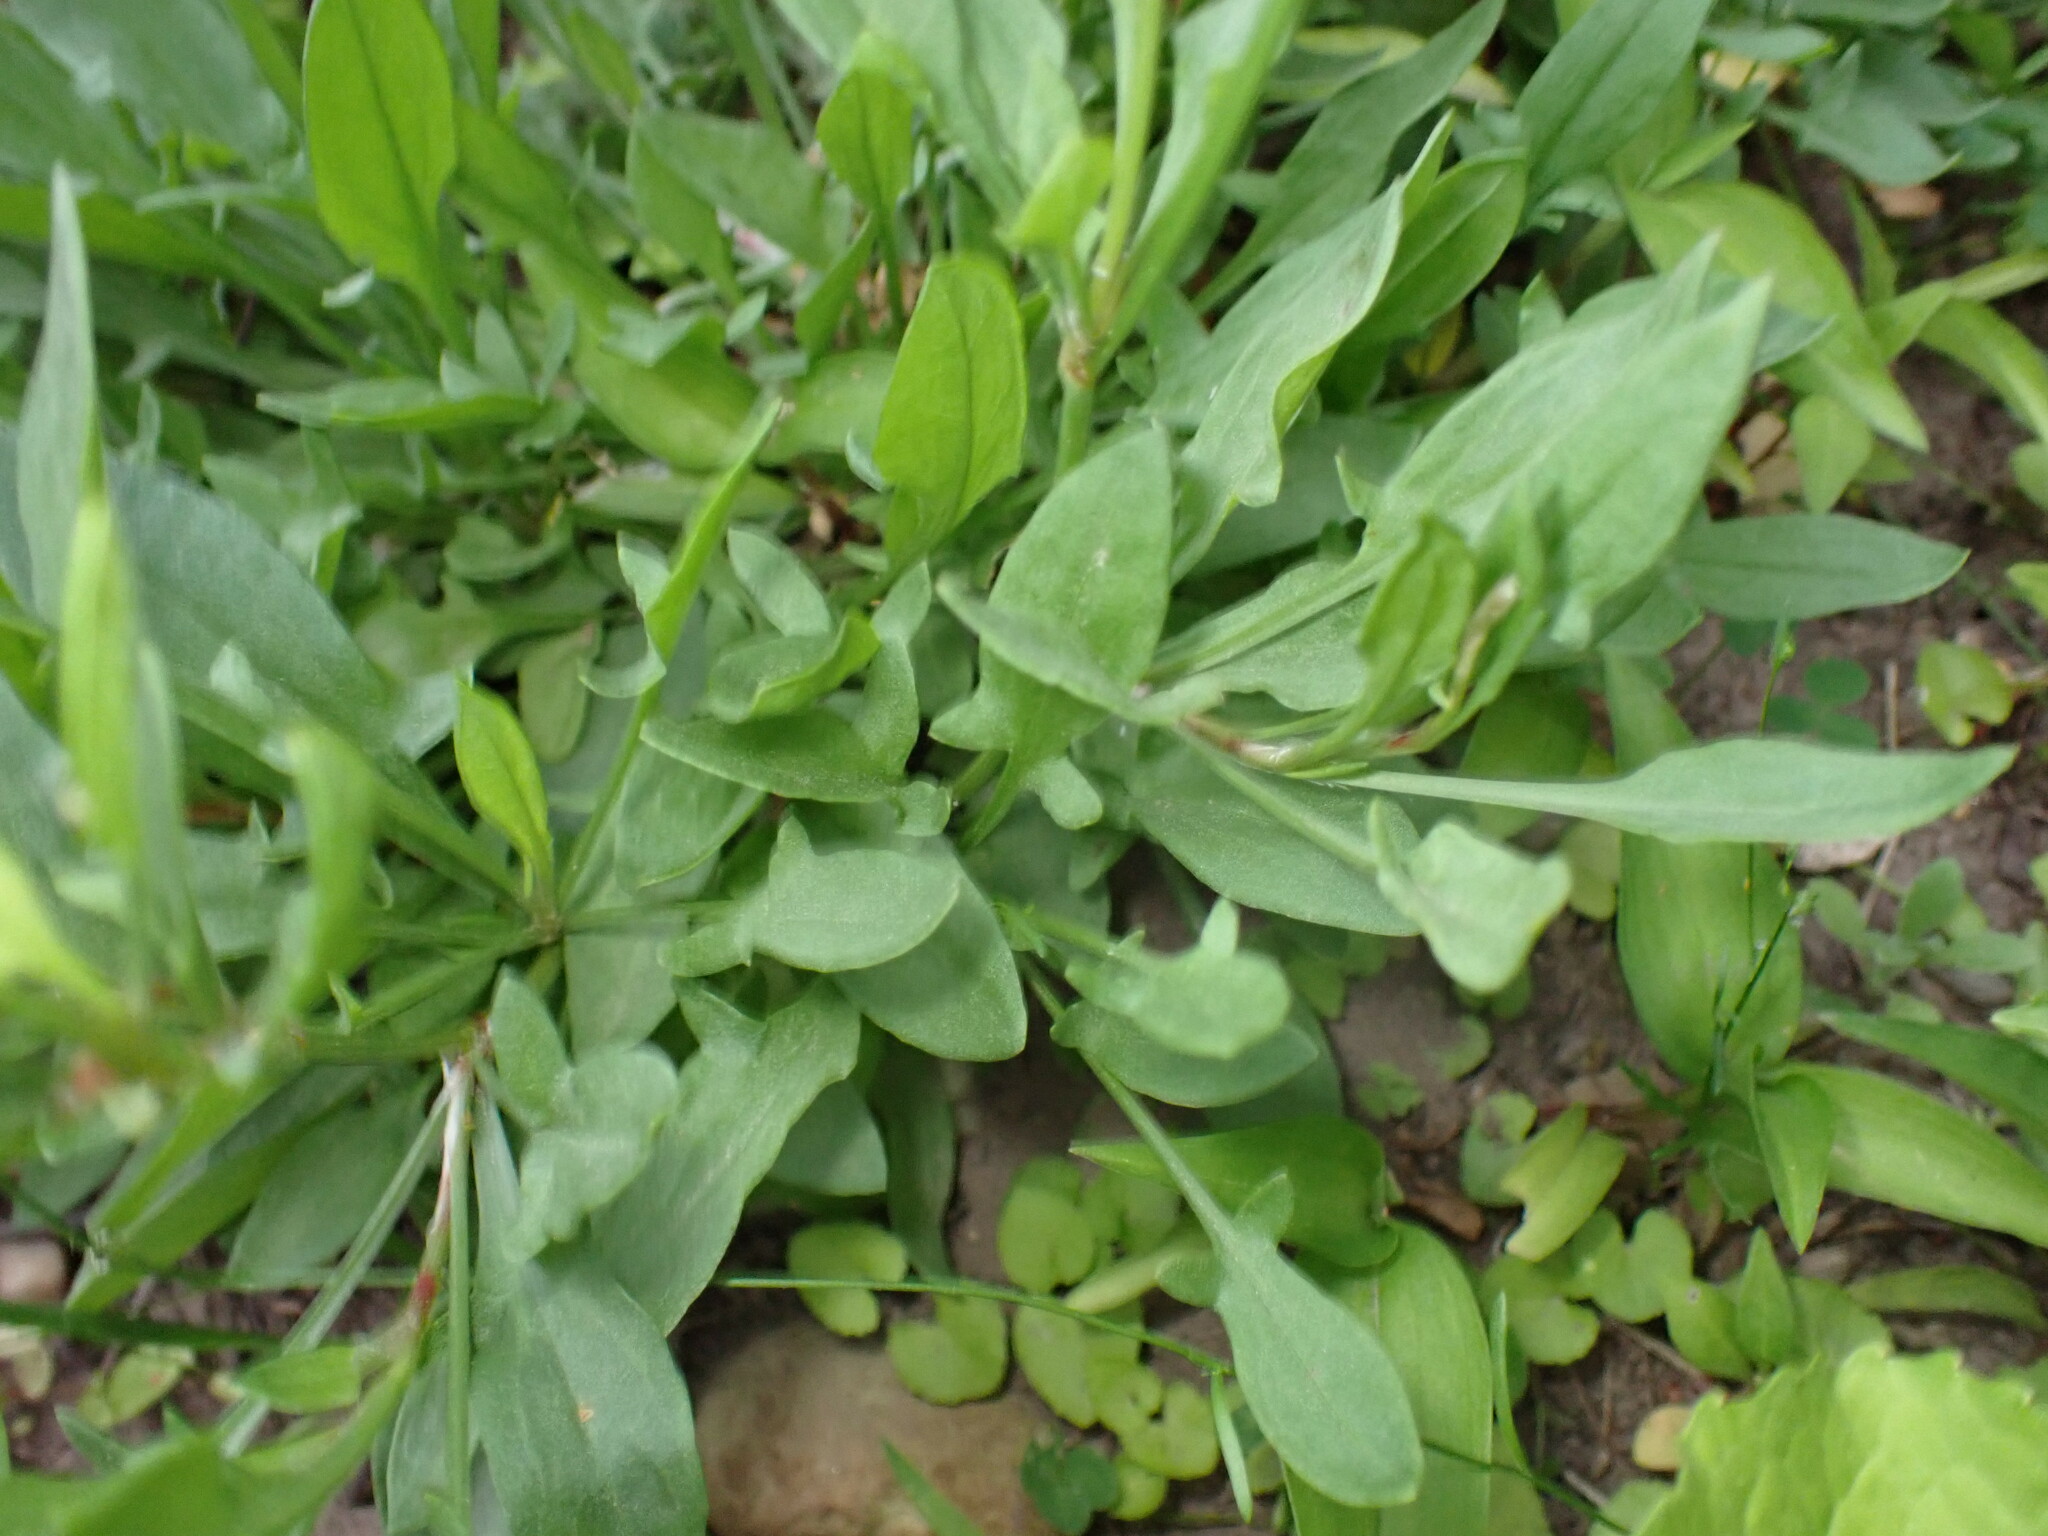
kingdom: Plantae
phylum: Tracheophyta
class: Magnoliopsida
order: Caryophyllales
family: Polygonaceae
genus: Rumex
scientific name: Rumex acetosella
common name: Common sheep sorrel
